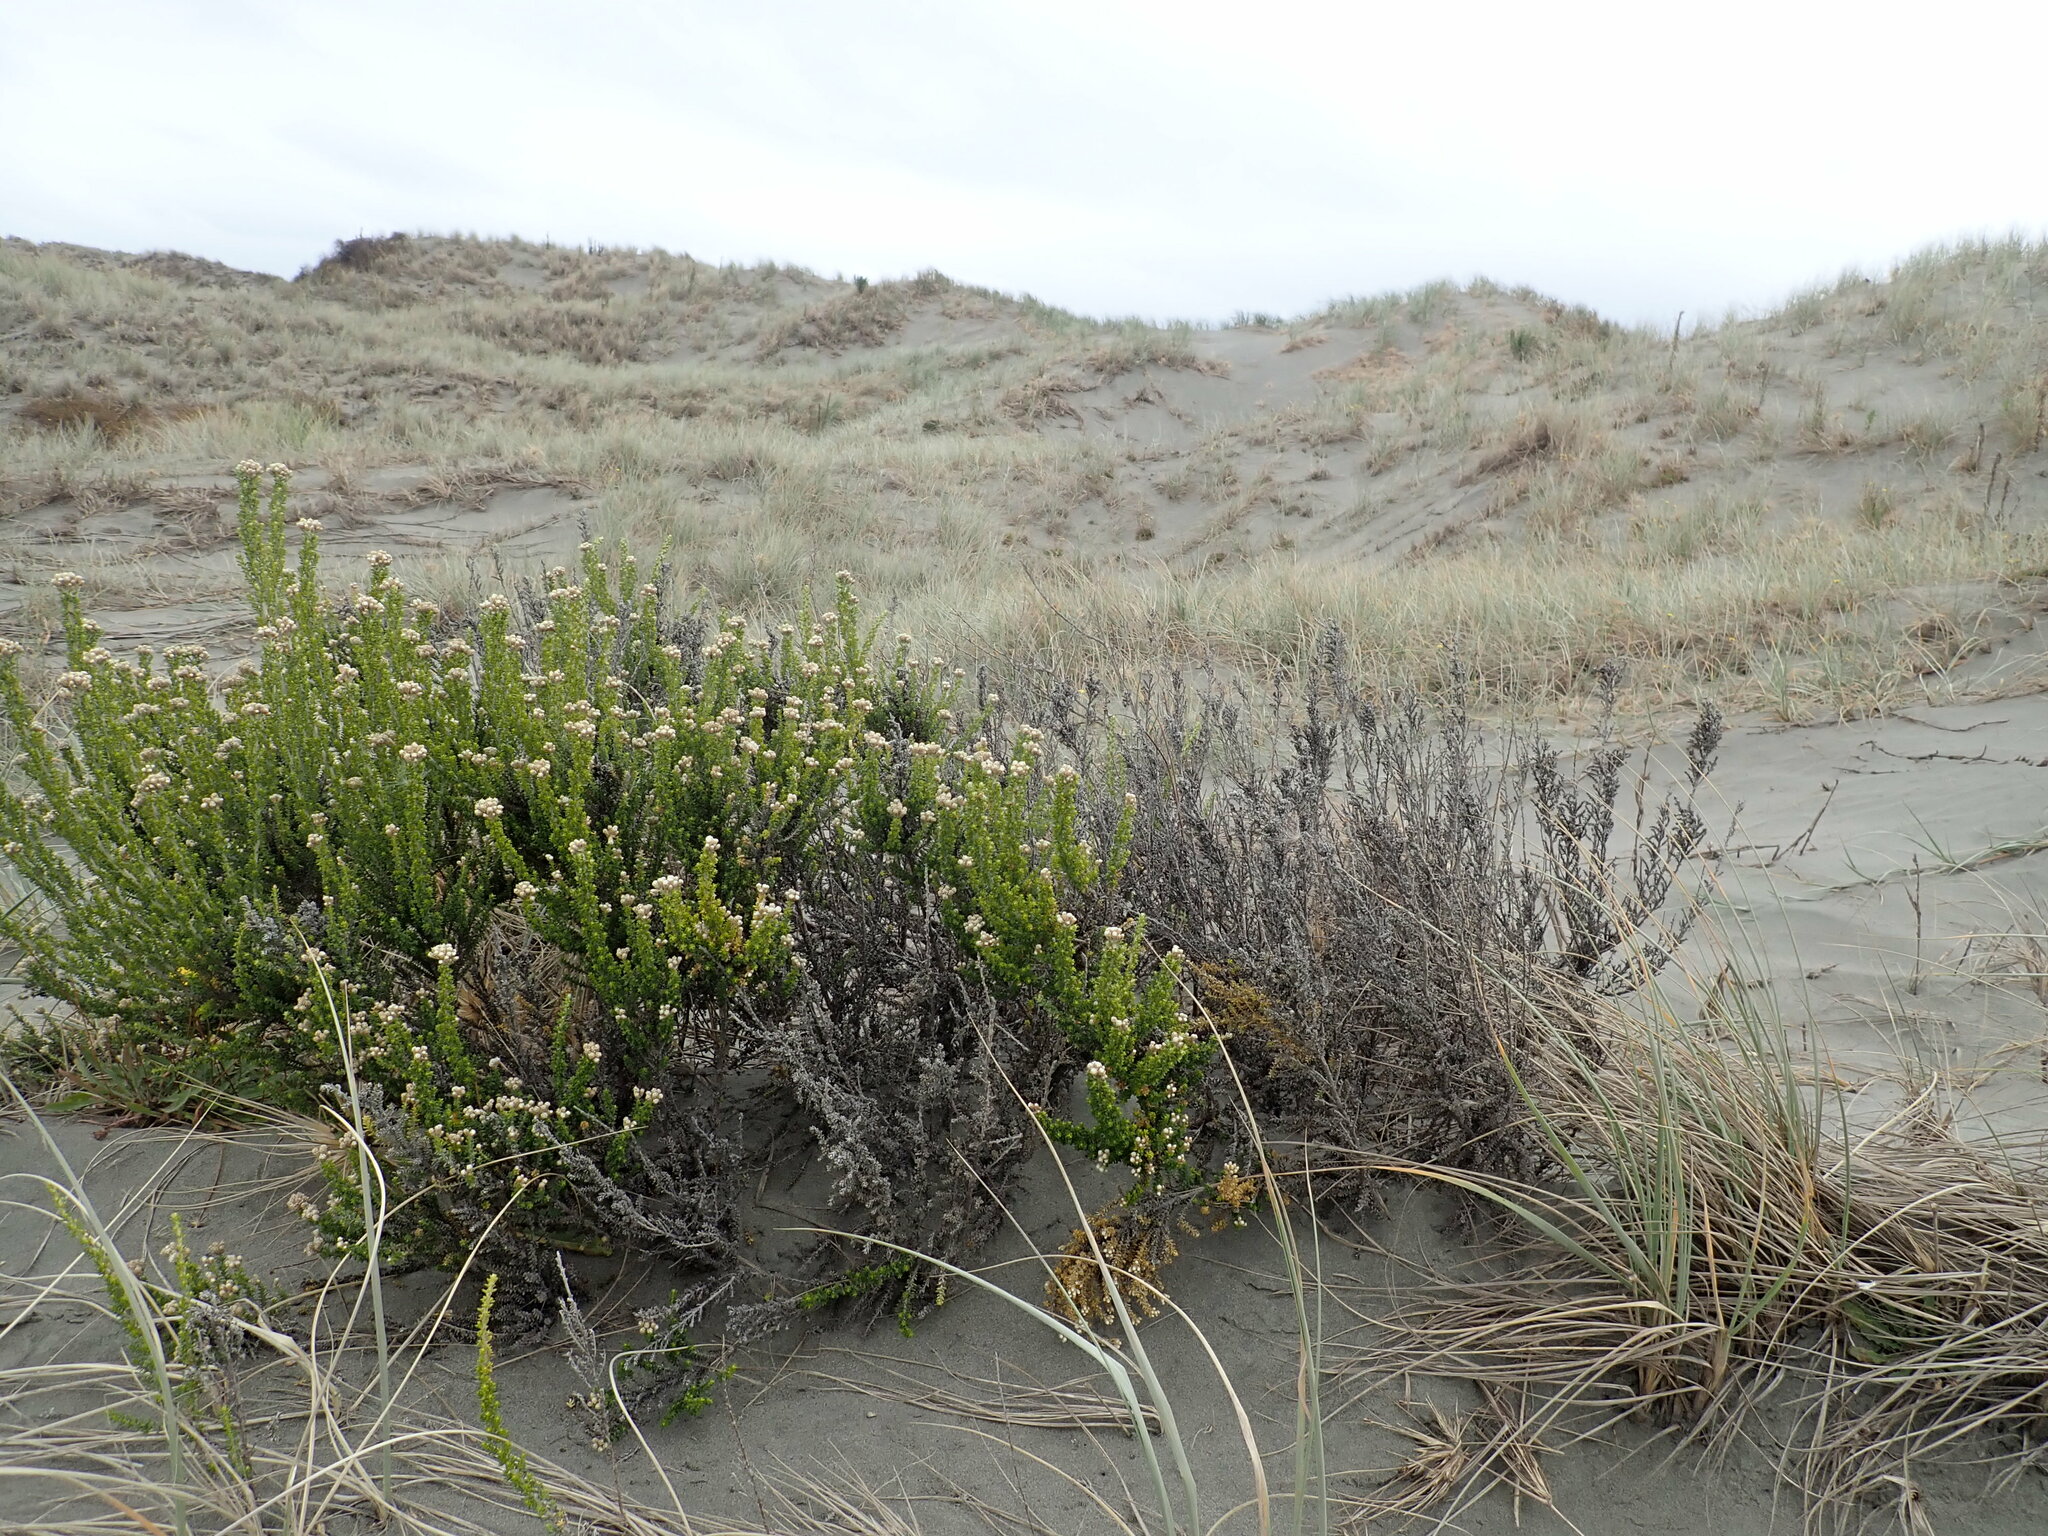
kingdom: Plantae
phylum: Tracheophyta
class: Magnoliopsida
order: Asterales
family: Asteraceae
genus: Ozothamnus
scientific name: Ozothamnus leptophyllus
